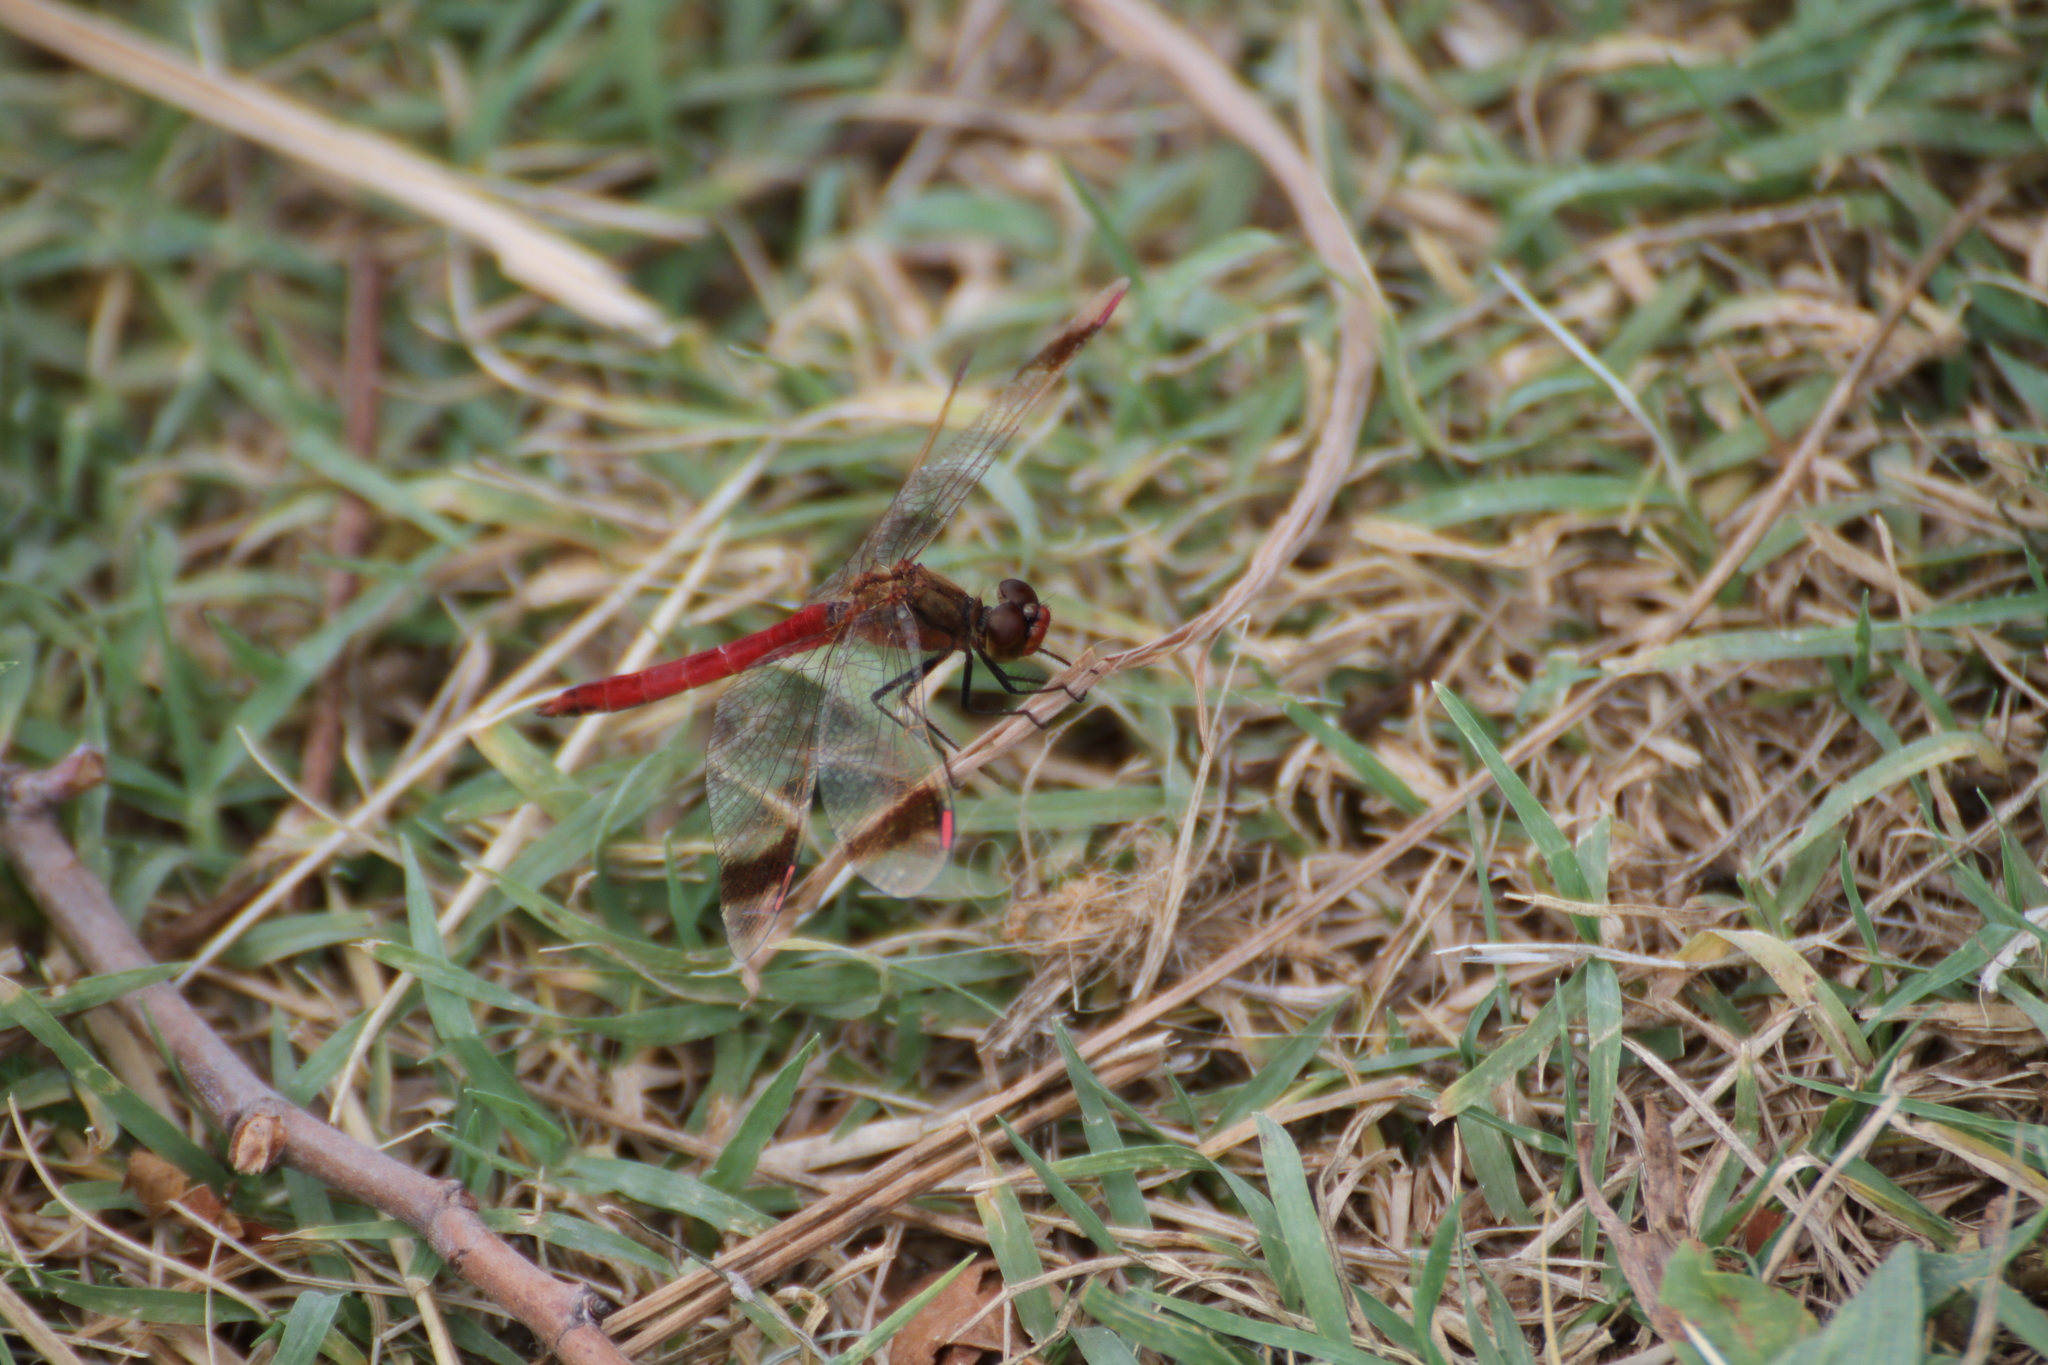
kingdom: Animalia
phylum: Arthropoda
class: Insecta
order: Odonata
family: Libellulidae
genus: Sympetrum
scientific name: Sympetrum pedemontanum
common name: Banded darter
